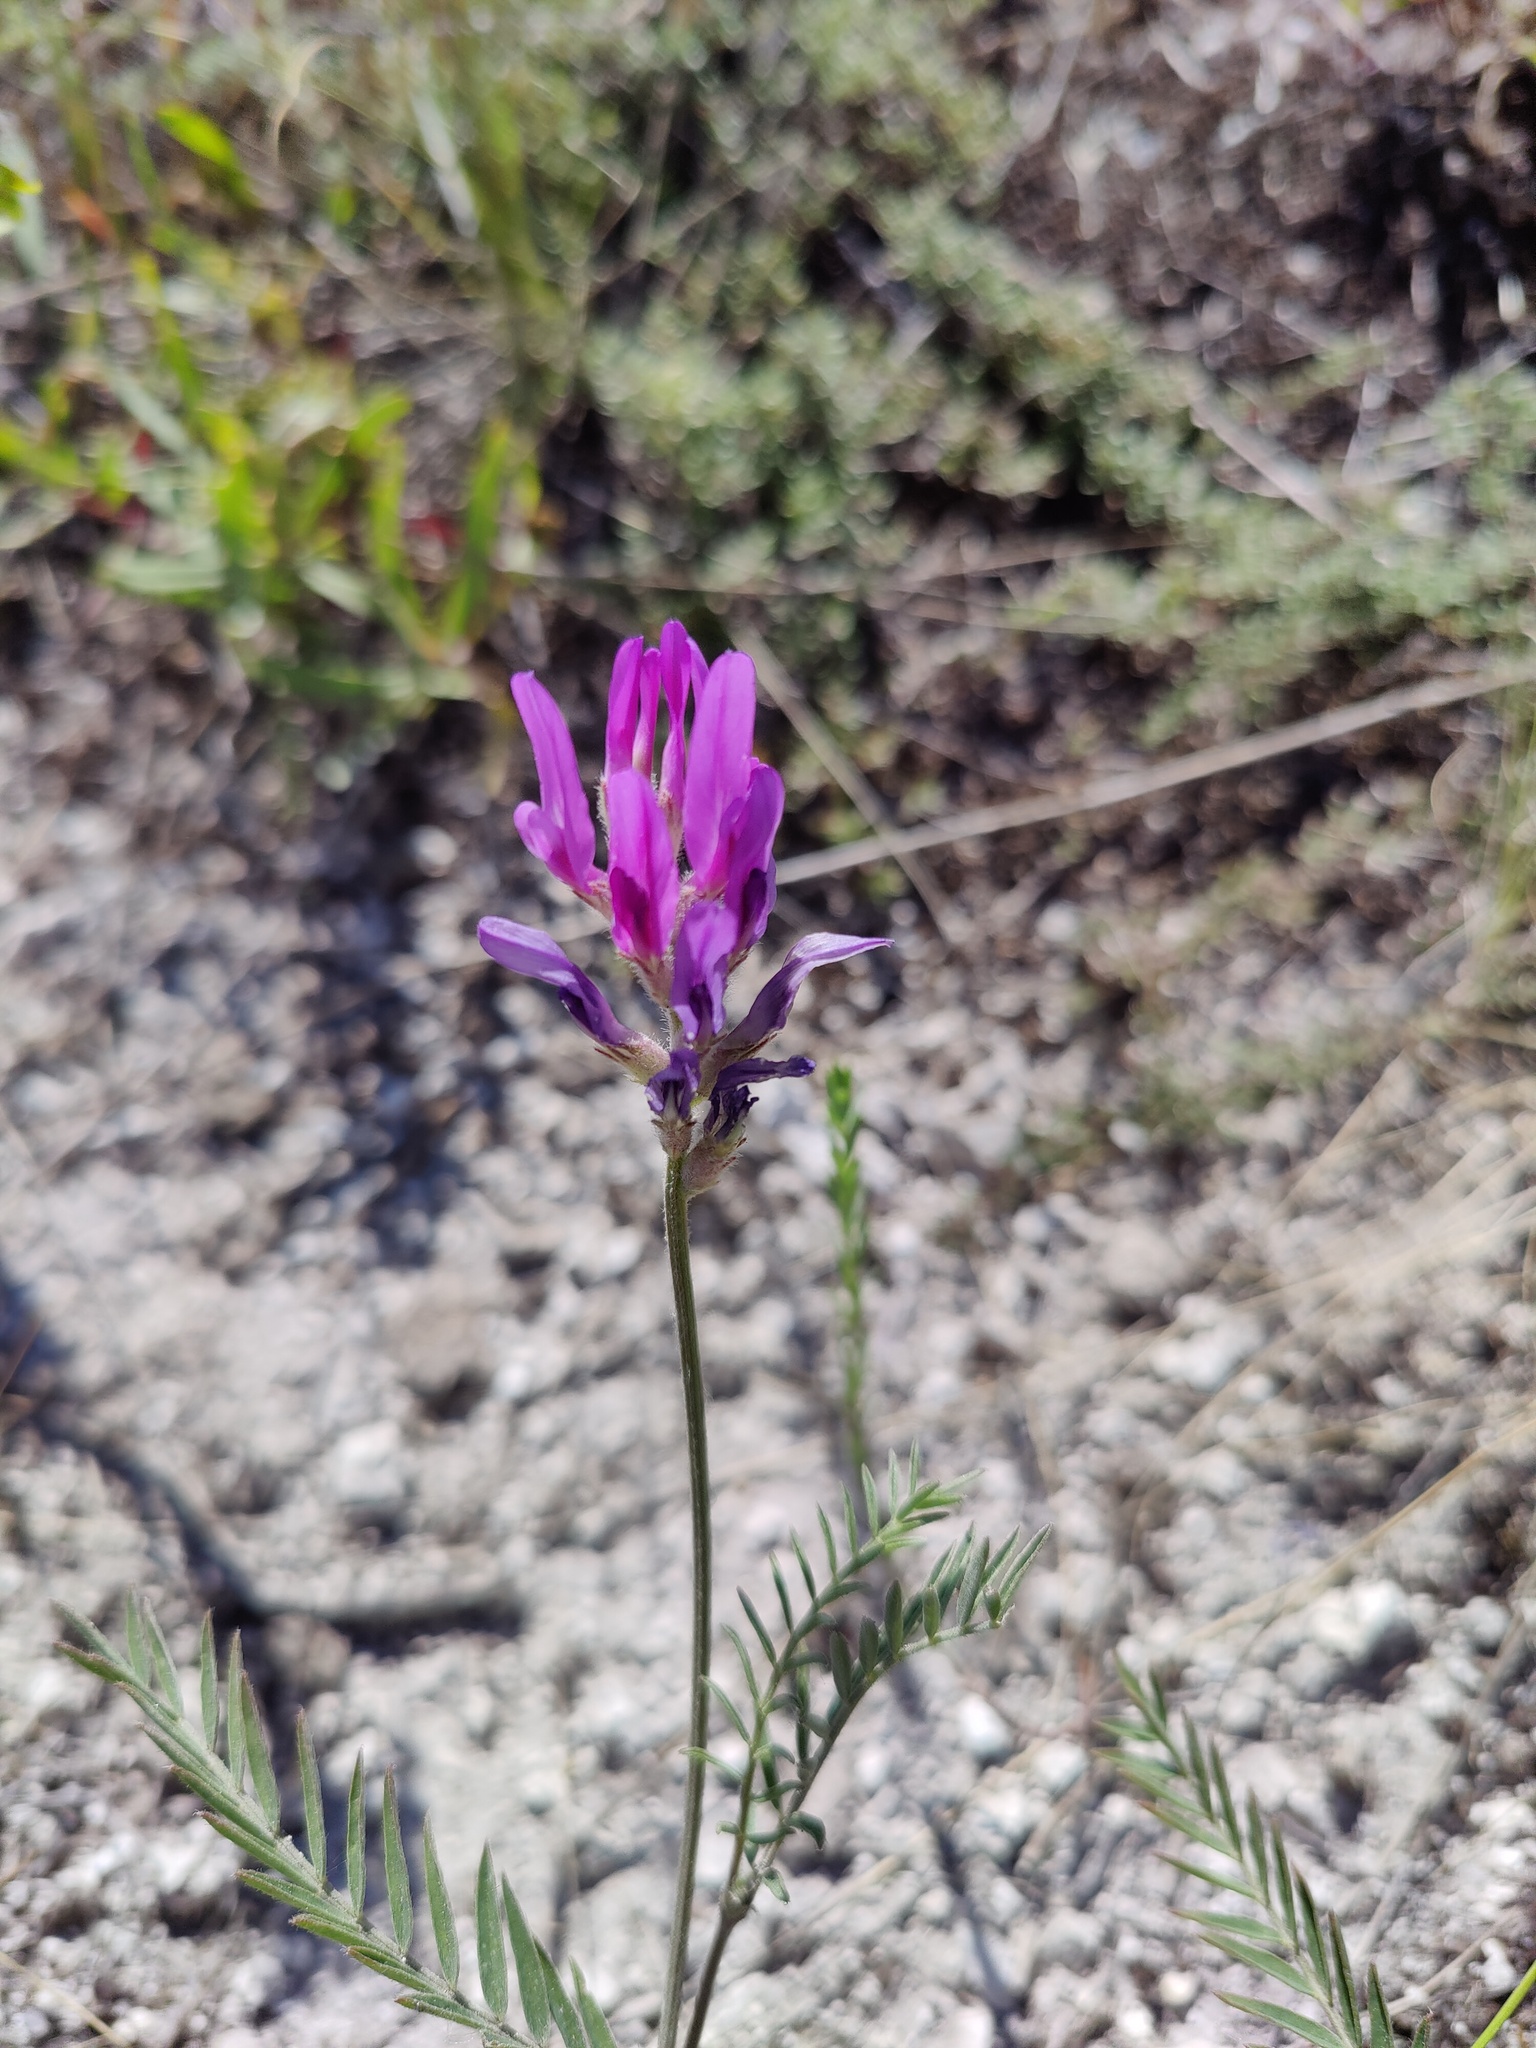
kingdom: Plantae
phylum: Tracheophyta
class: Magnoliopsida
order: Fabales
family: Fabaceae
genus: Astragalus
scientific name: Astragalus onobrychis
